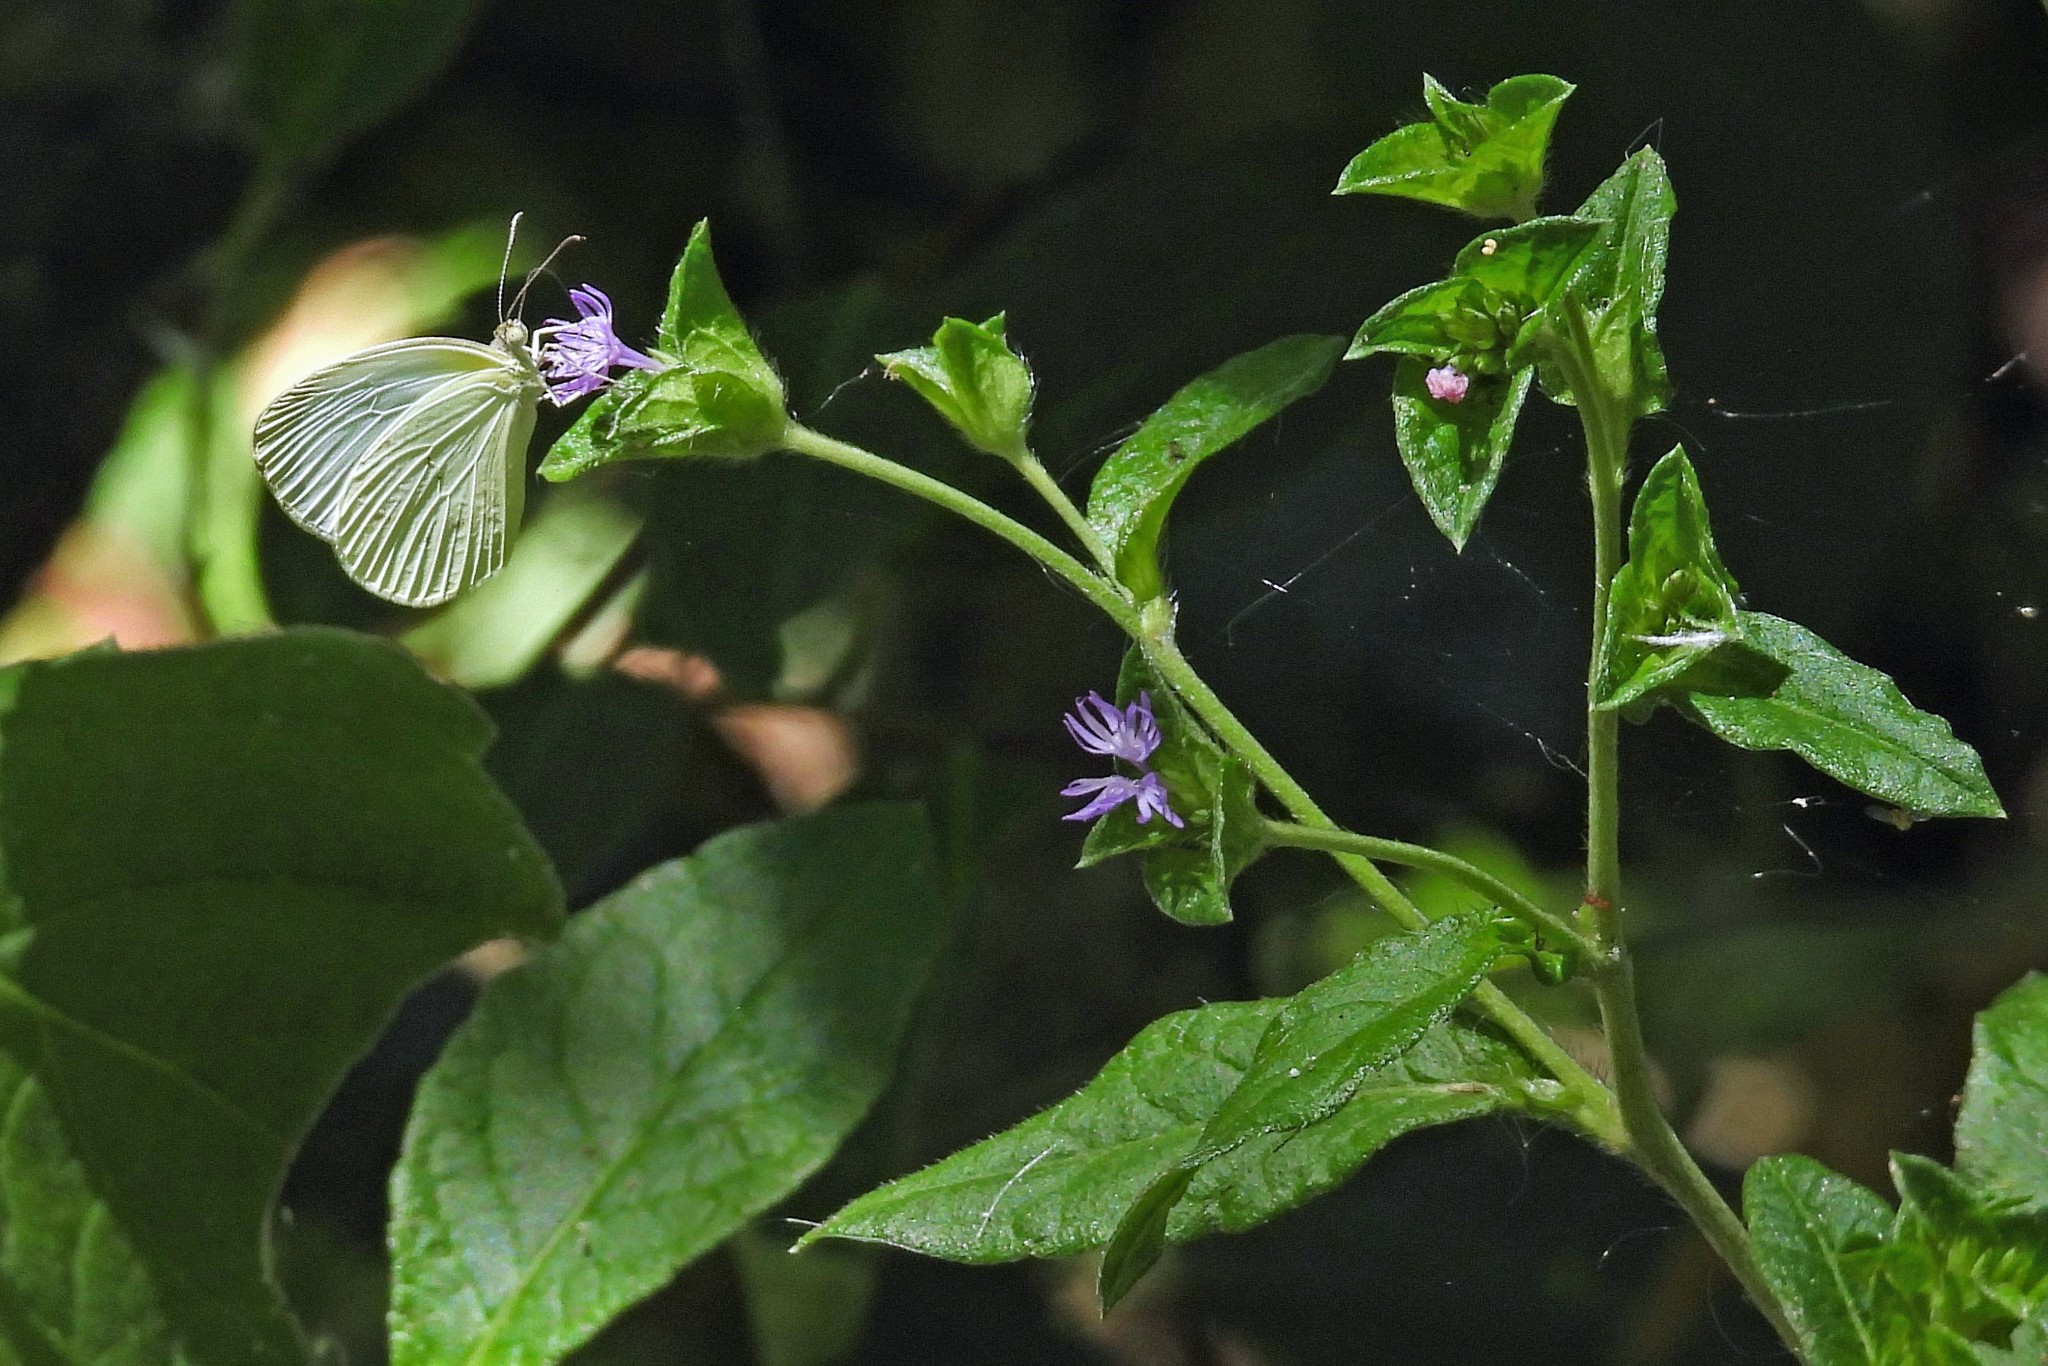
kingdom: Plantae
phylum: Tracheophyta
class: Magnoliopsida
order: Asterales
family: Asteraceae
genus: Elephantopus
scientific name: Elephantopus mollis
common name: Soft elephantsfoot
